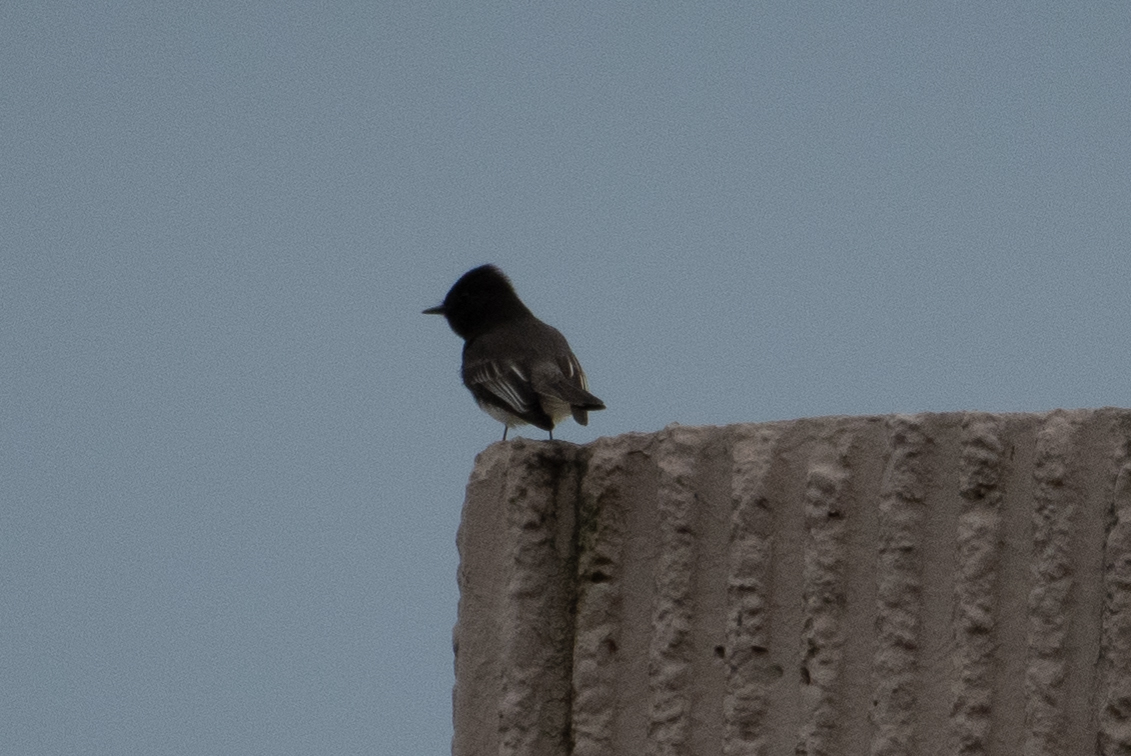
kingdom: Animalia
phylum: Chordata
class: Aves
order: Passeriformes
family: Tyrannidae
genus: Sayornis
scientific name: Sayornis nigricans
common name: Black phoebe
